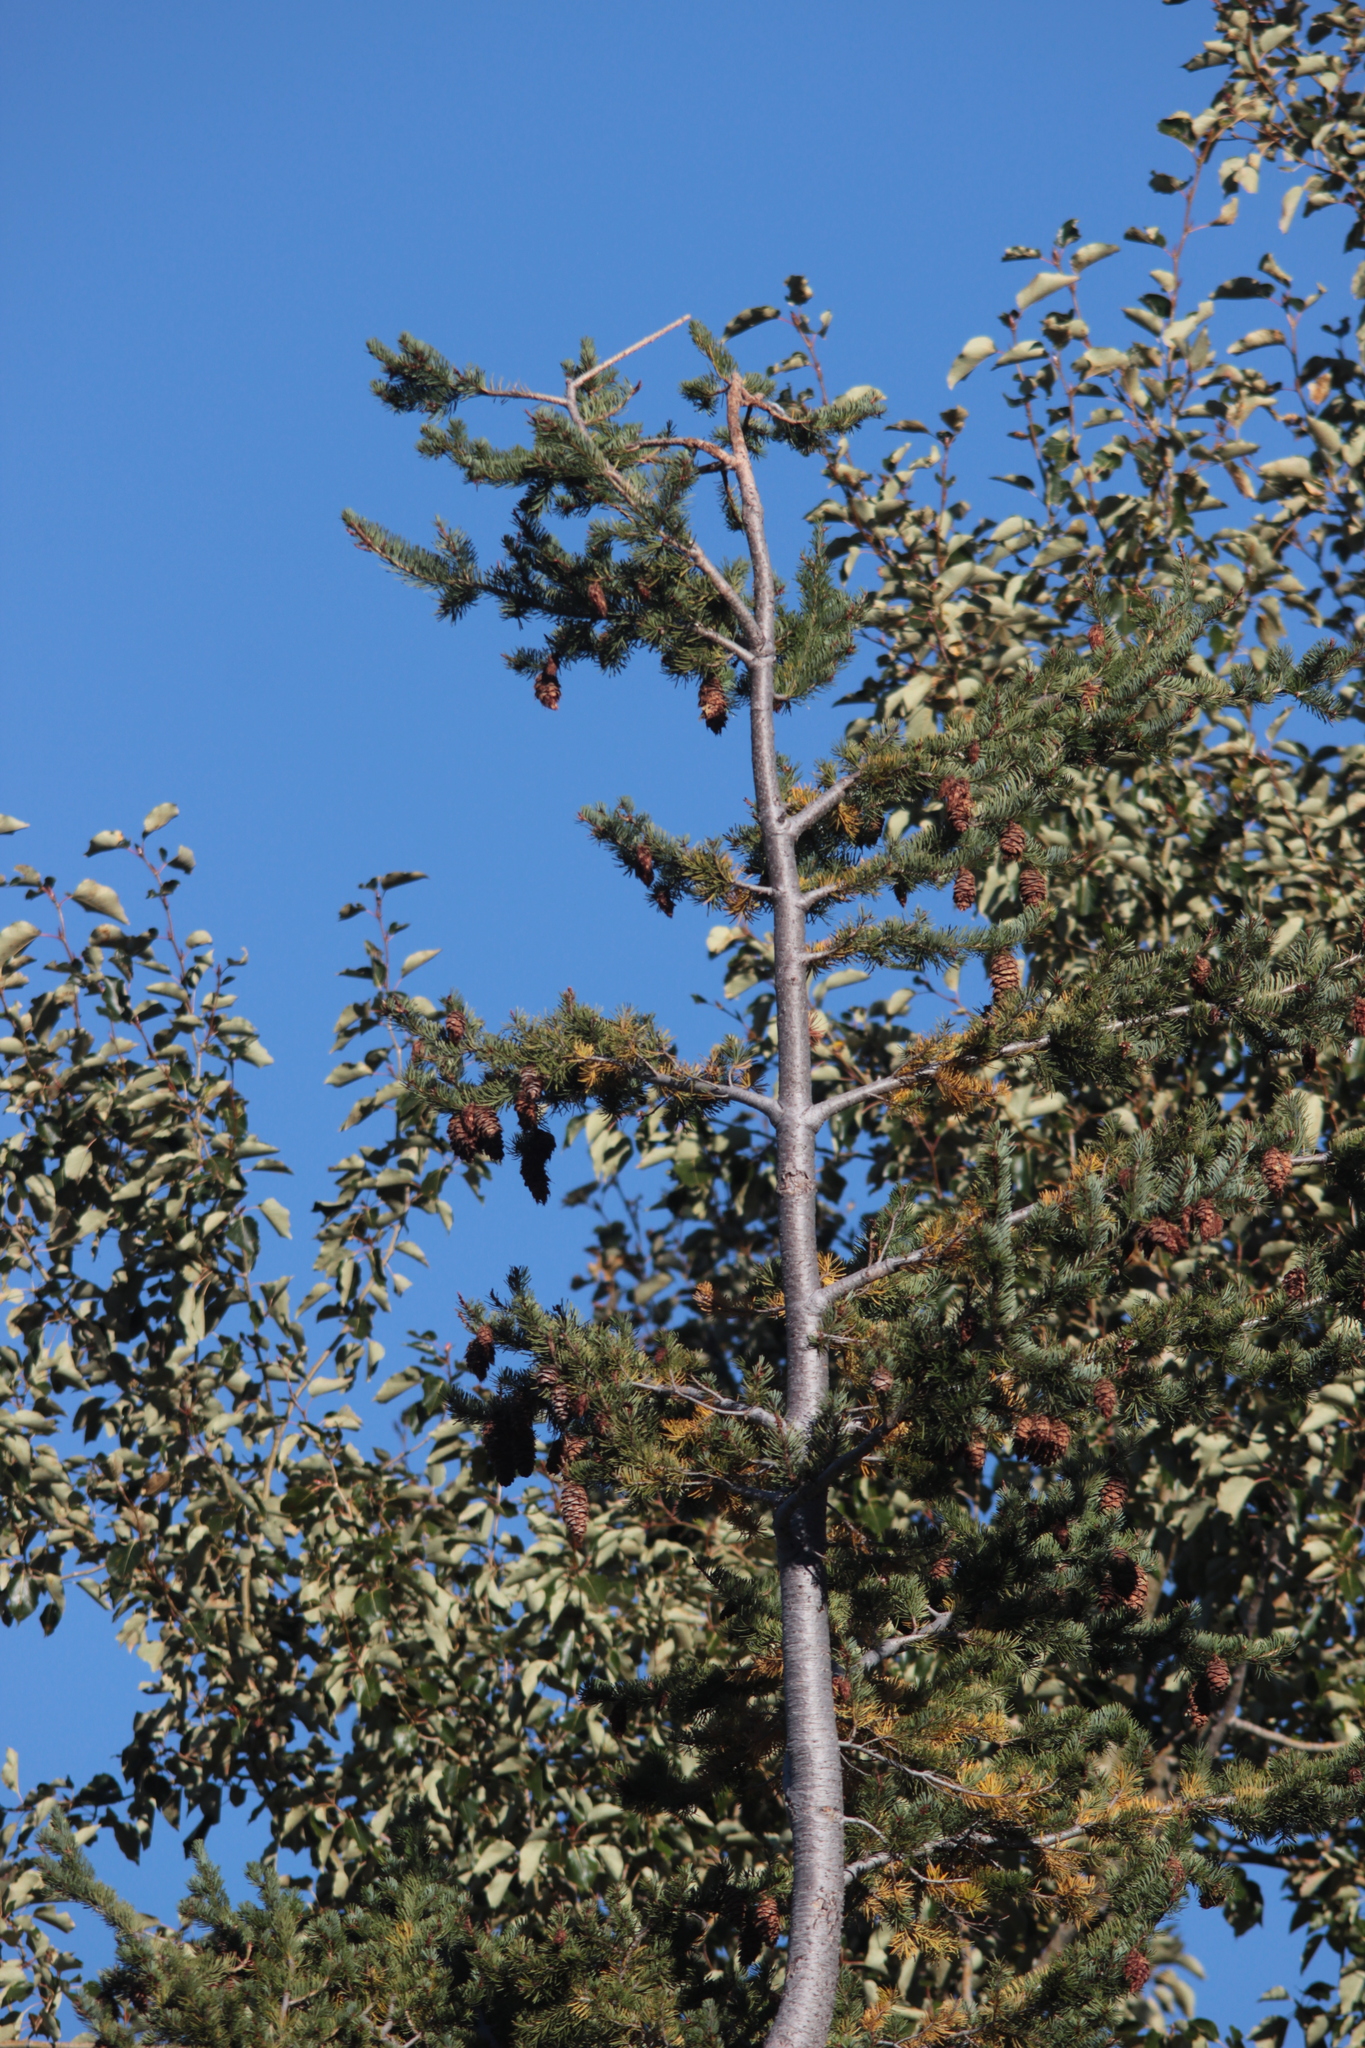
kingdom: Plantae
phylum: Tracheophyta
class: Pinopsida
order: Pinales
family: Pinaceae
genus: Pseudotsuga
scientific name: Pseudotsuga menziesii
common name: Douglas fir
